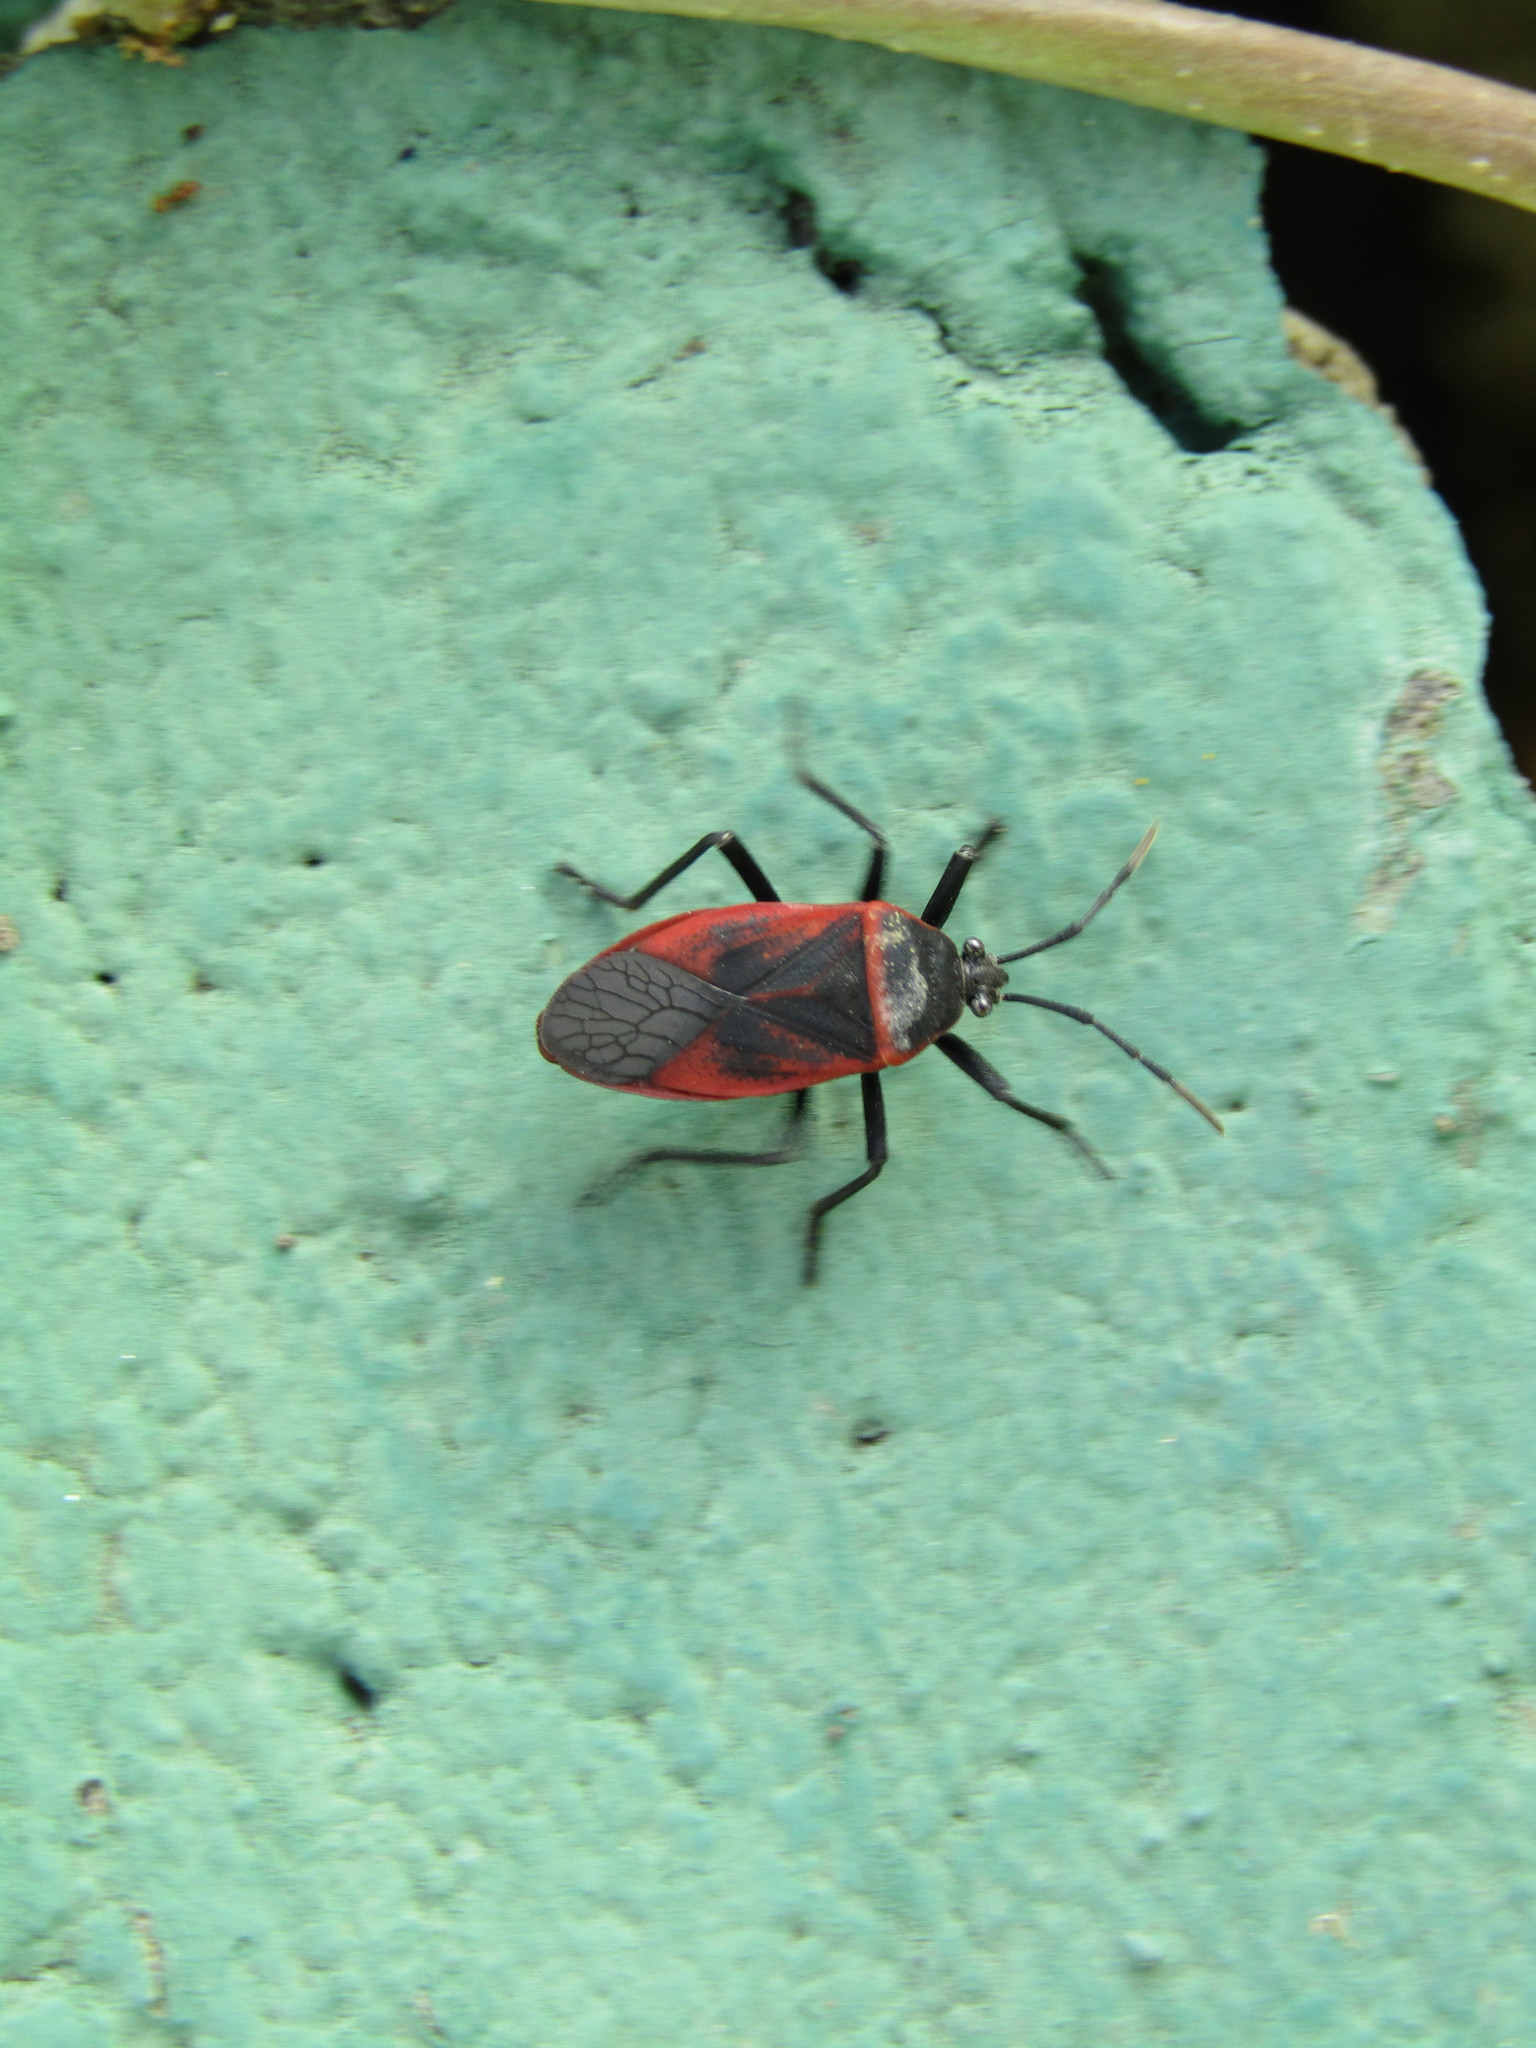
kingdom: Animalia
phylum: Arthropoda
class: Insecta
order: Hemiptera
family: Largidae
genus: Largus
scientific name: Largus rufipennis
